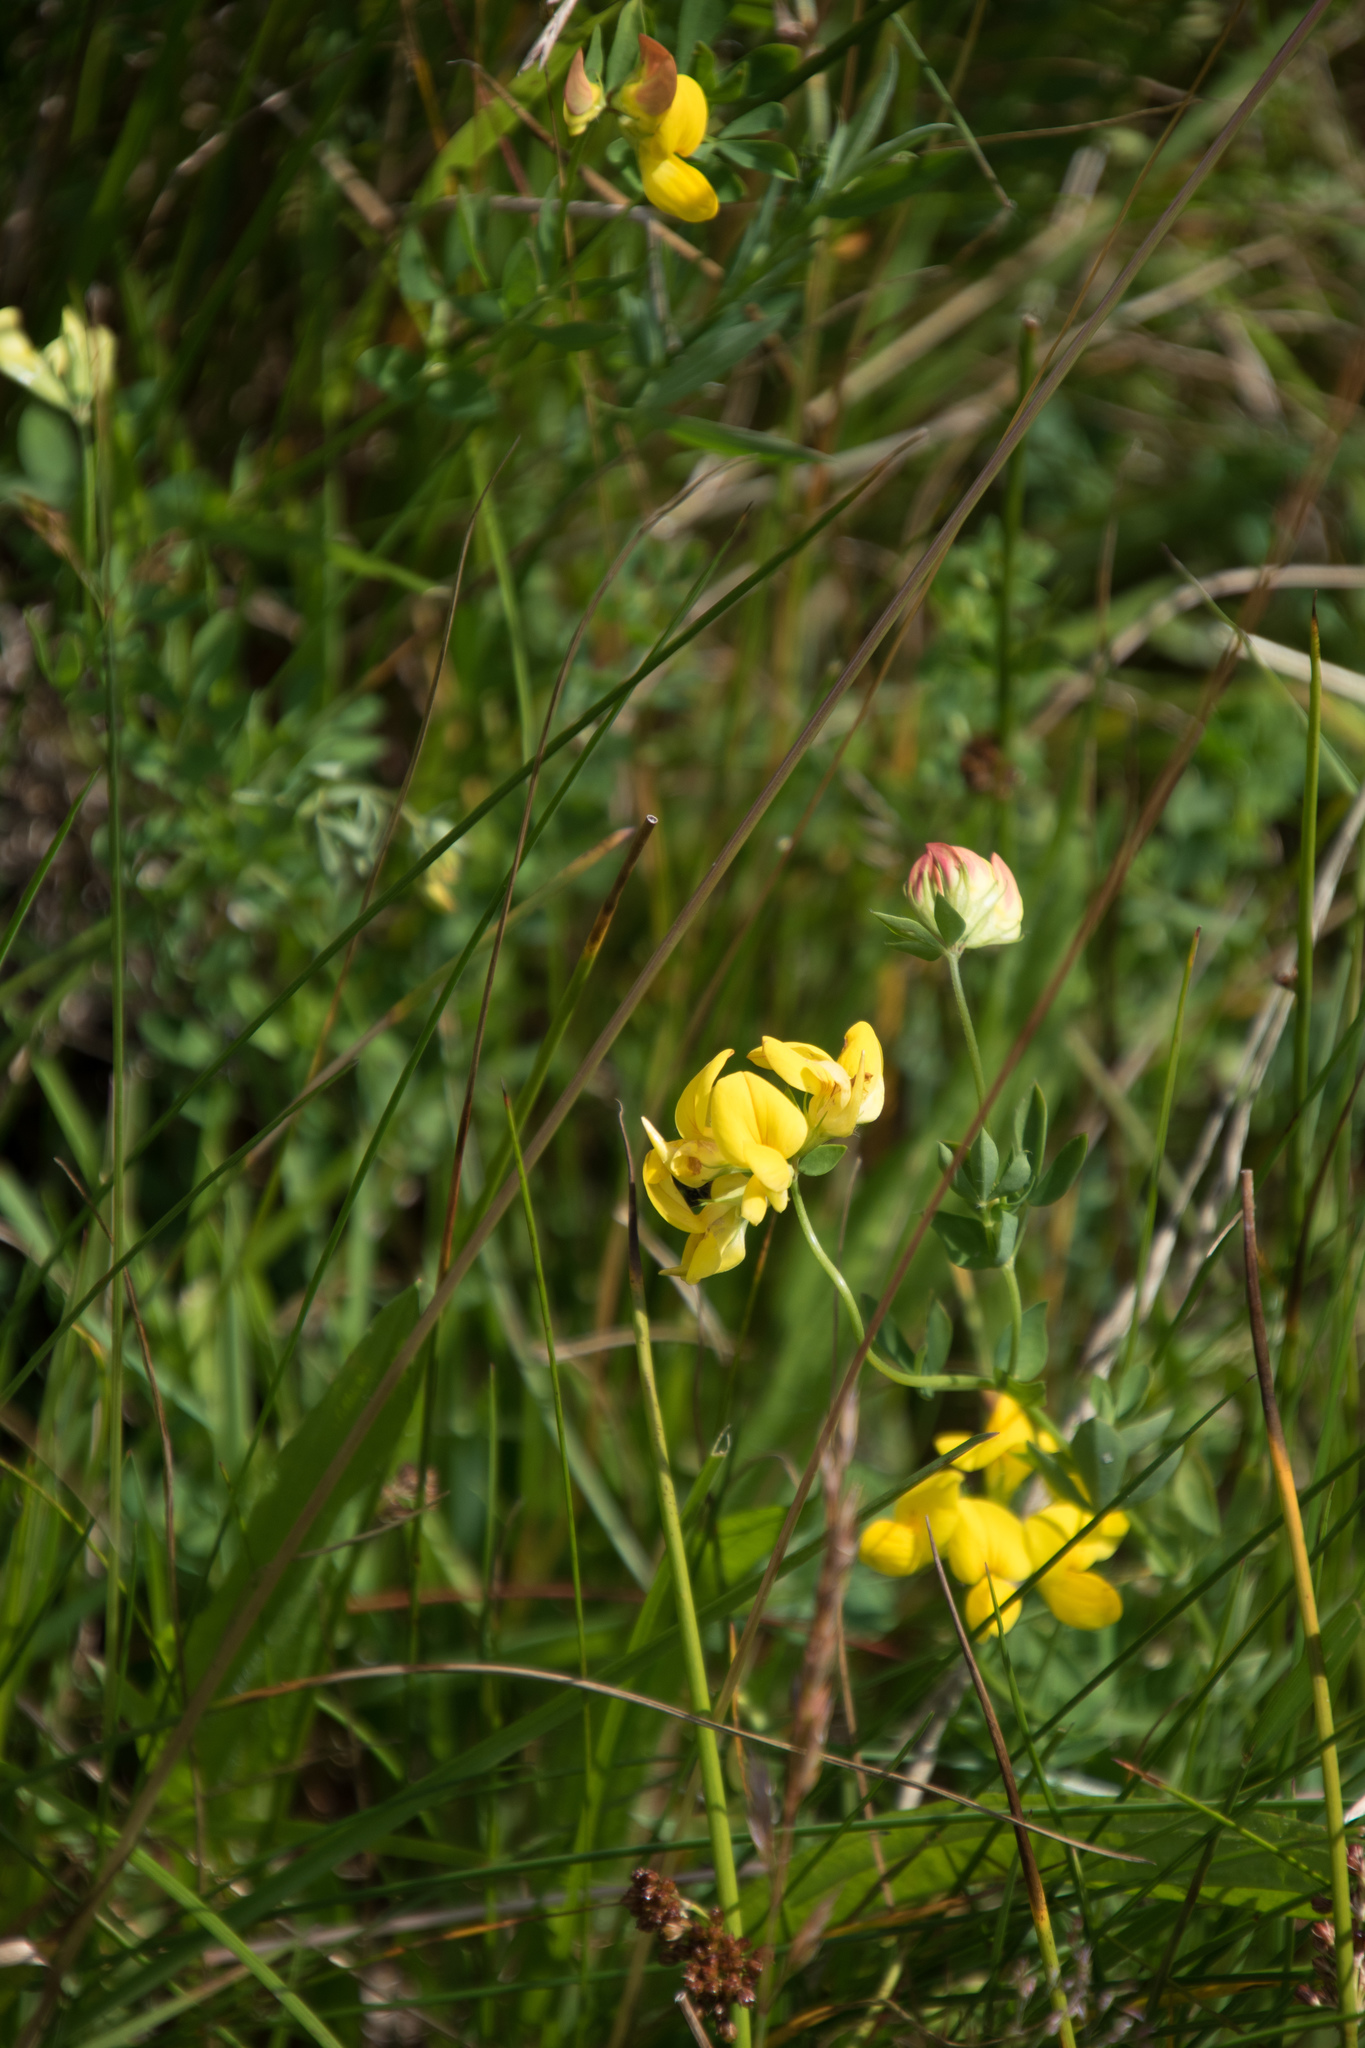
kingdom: Plantae
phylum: Tracheophyta
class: Magnoliopsida
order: Fabales
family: Fabaceae
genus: Lotus
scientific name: Lotus corniculatus
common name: Common bird's-foot-trefoil
